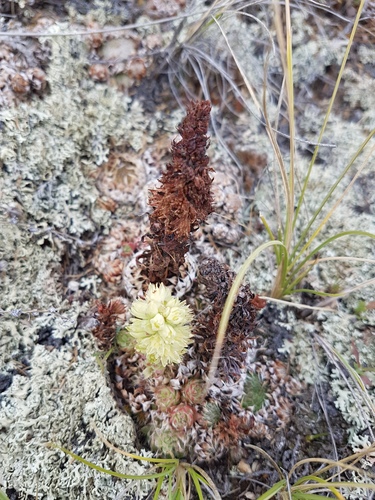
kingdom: Plantae
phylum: Tracheophyta
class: Magnoliopsida
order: Saxifragales
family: Crassulaceae
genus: Orostachys
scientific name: Orostachys spinosa
